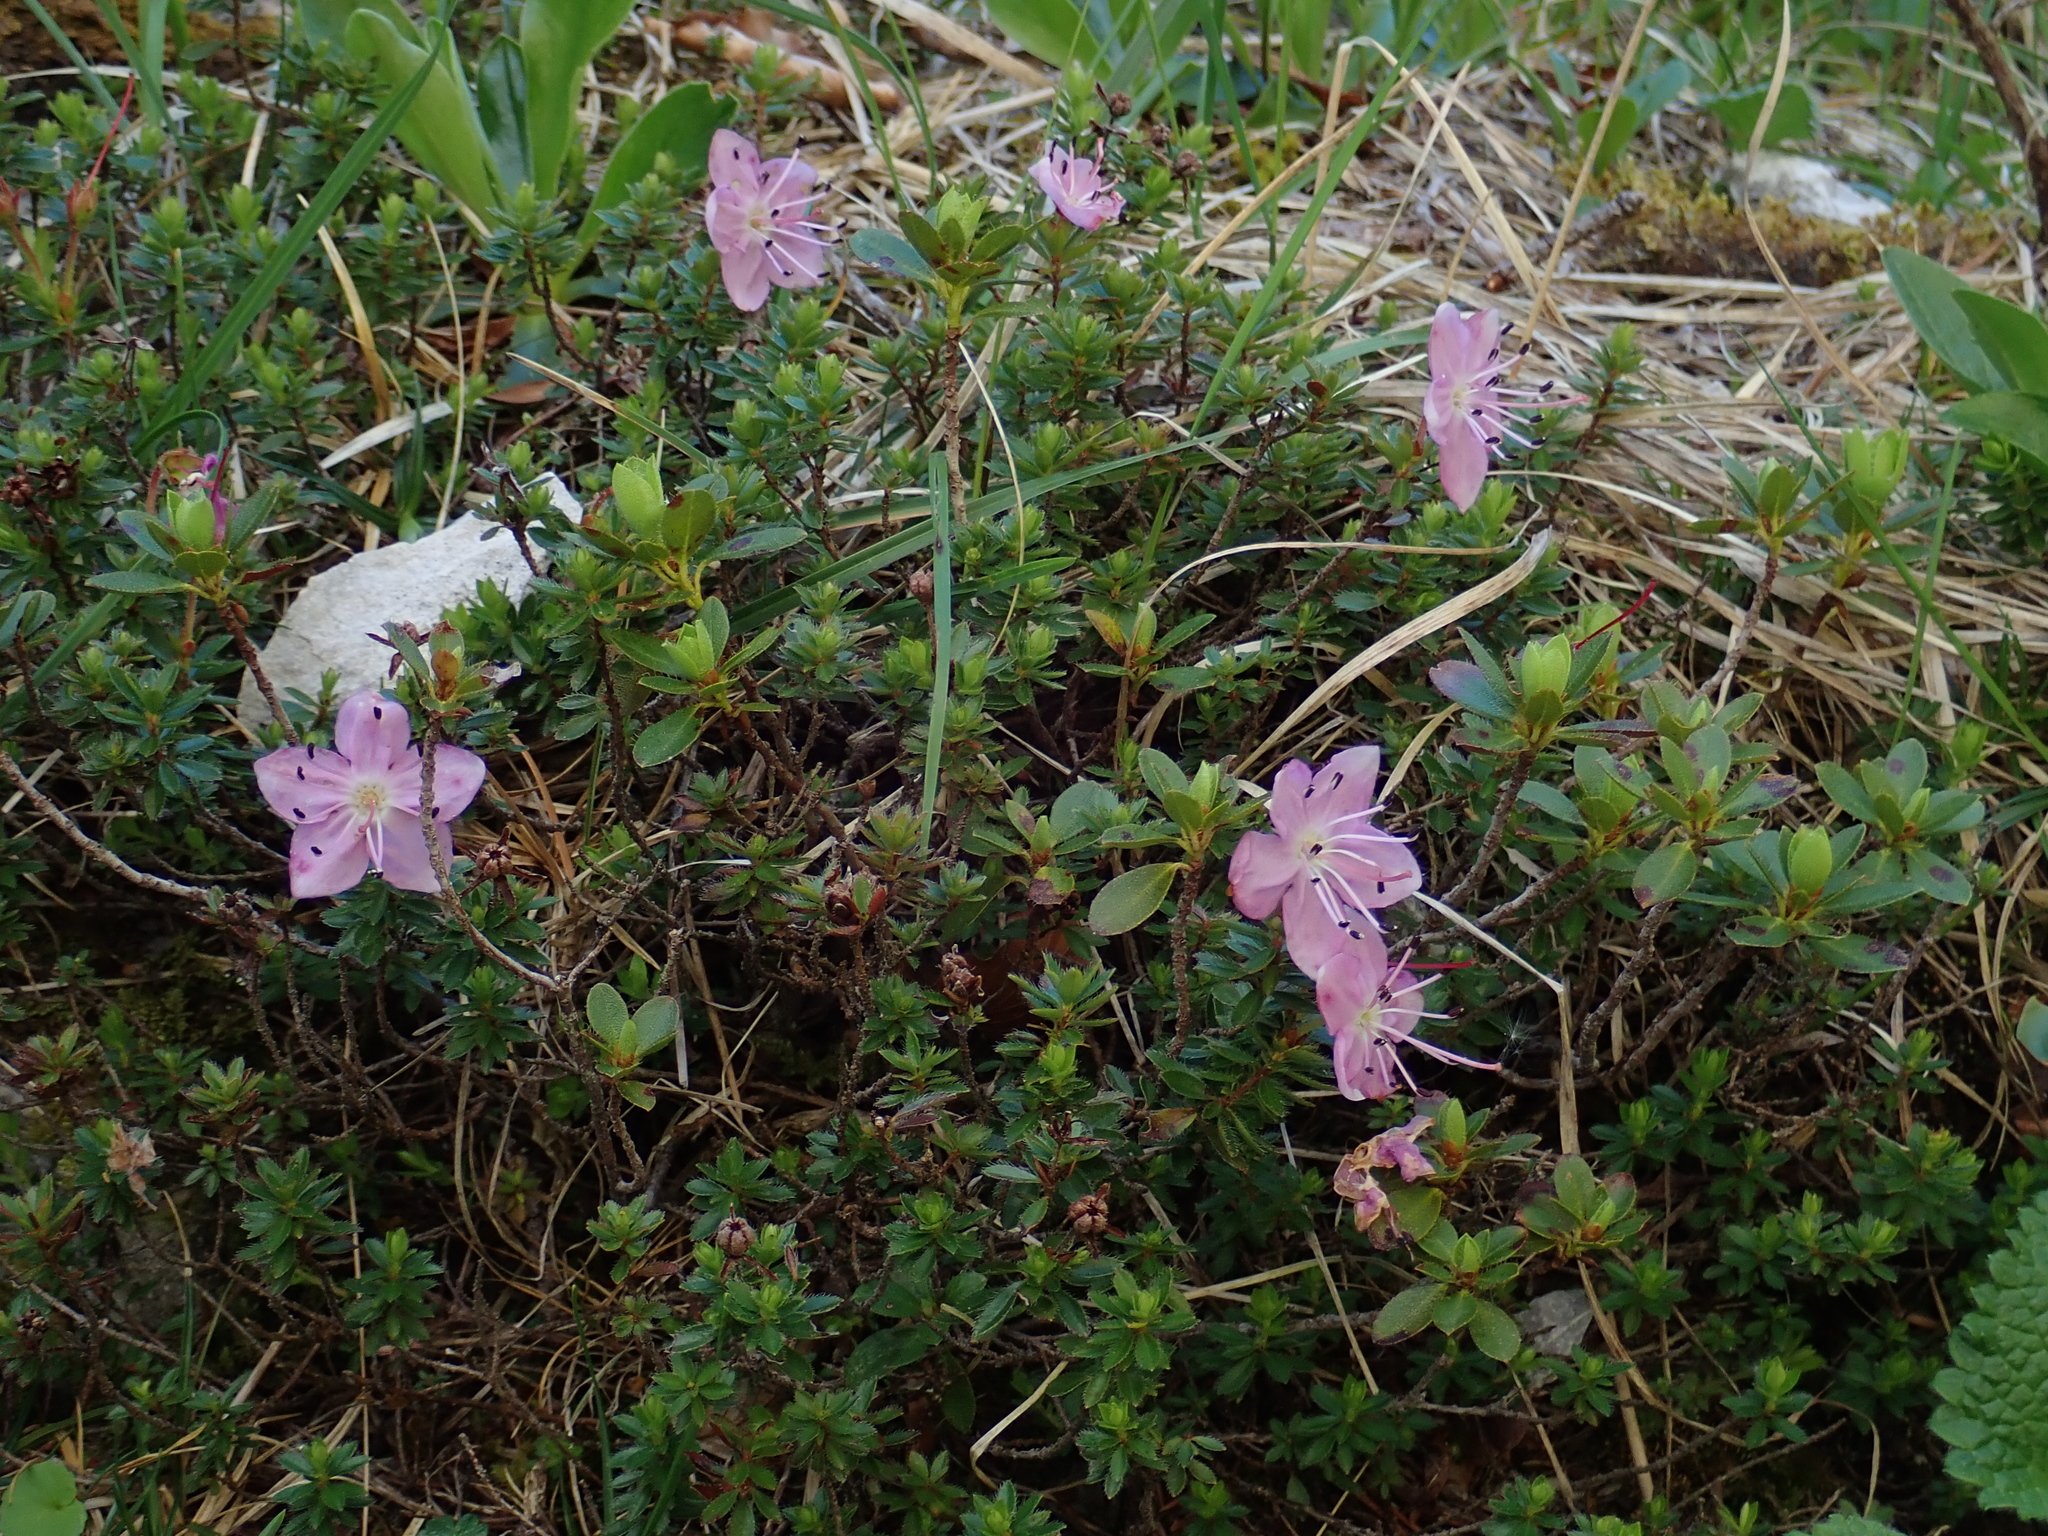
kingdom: Plantae
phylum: Tracheophyta
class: Magnoliopsida
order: Ericales
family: Ericaceae
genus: Rhodothamnus
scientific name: Rhodothamnus chamaecistus
